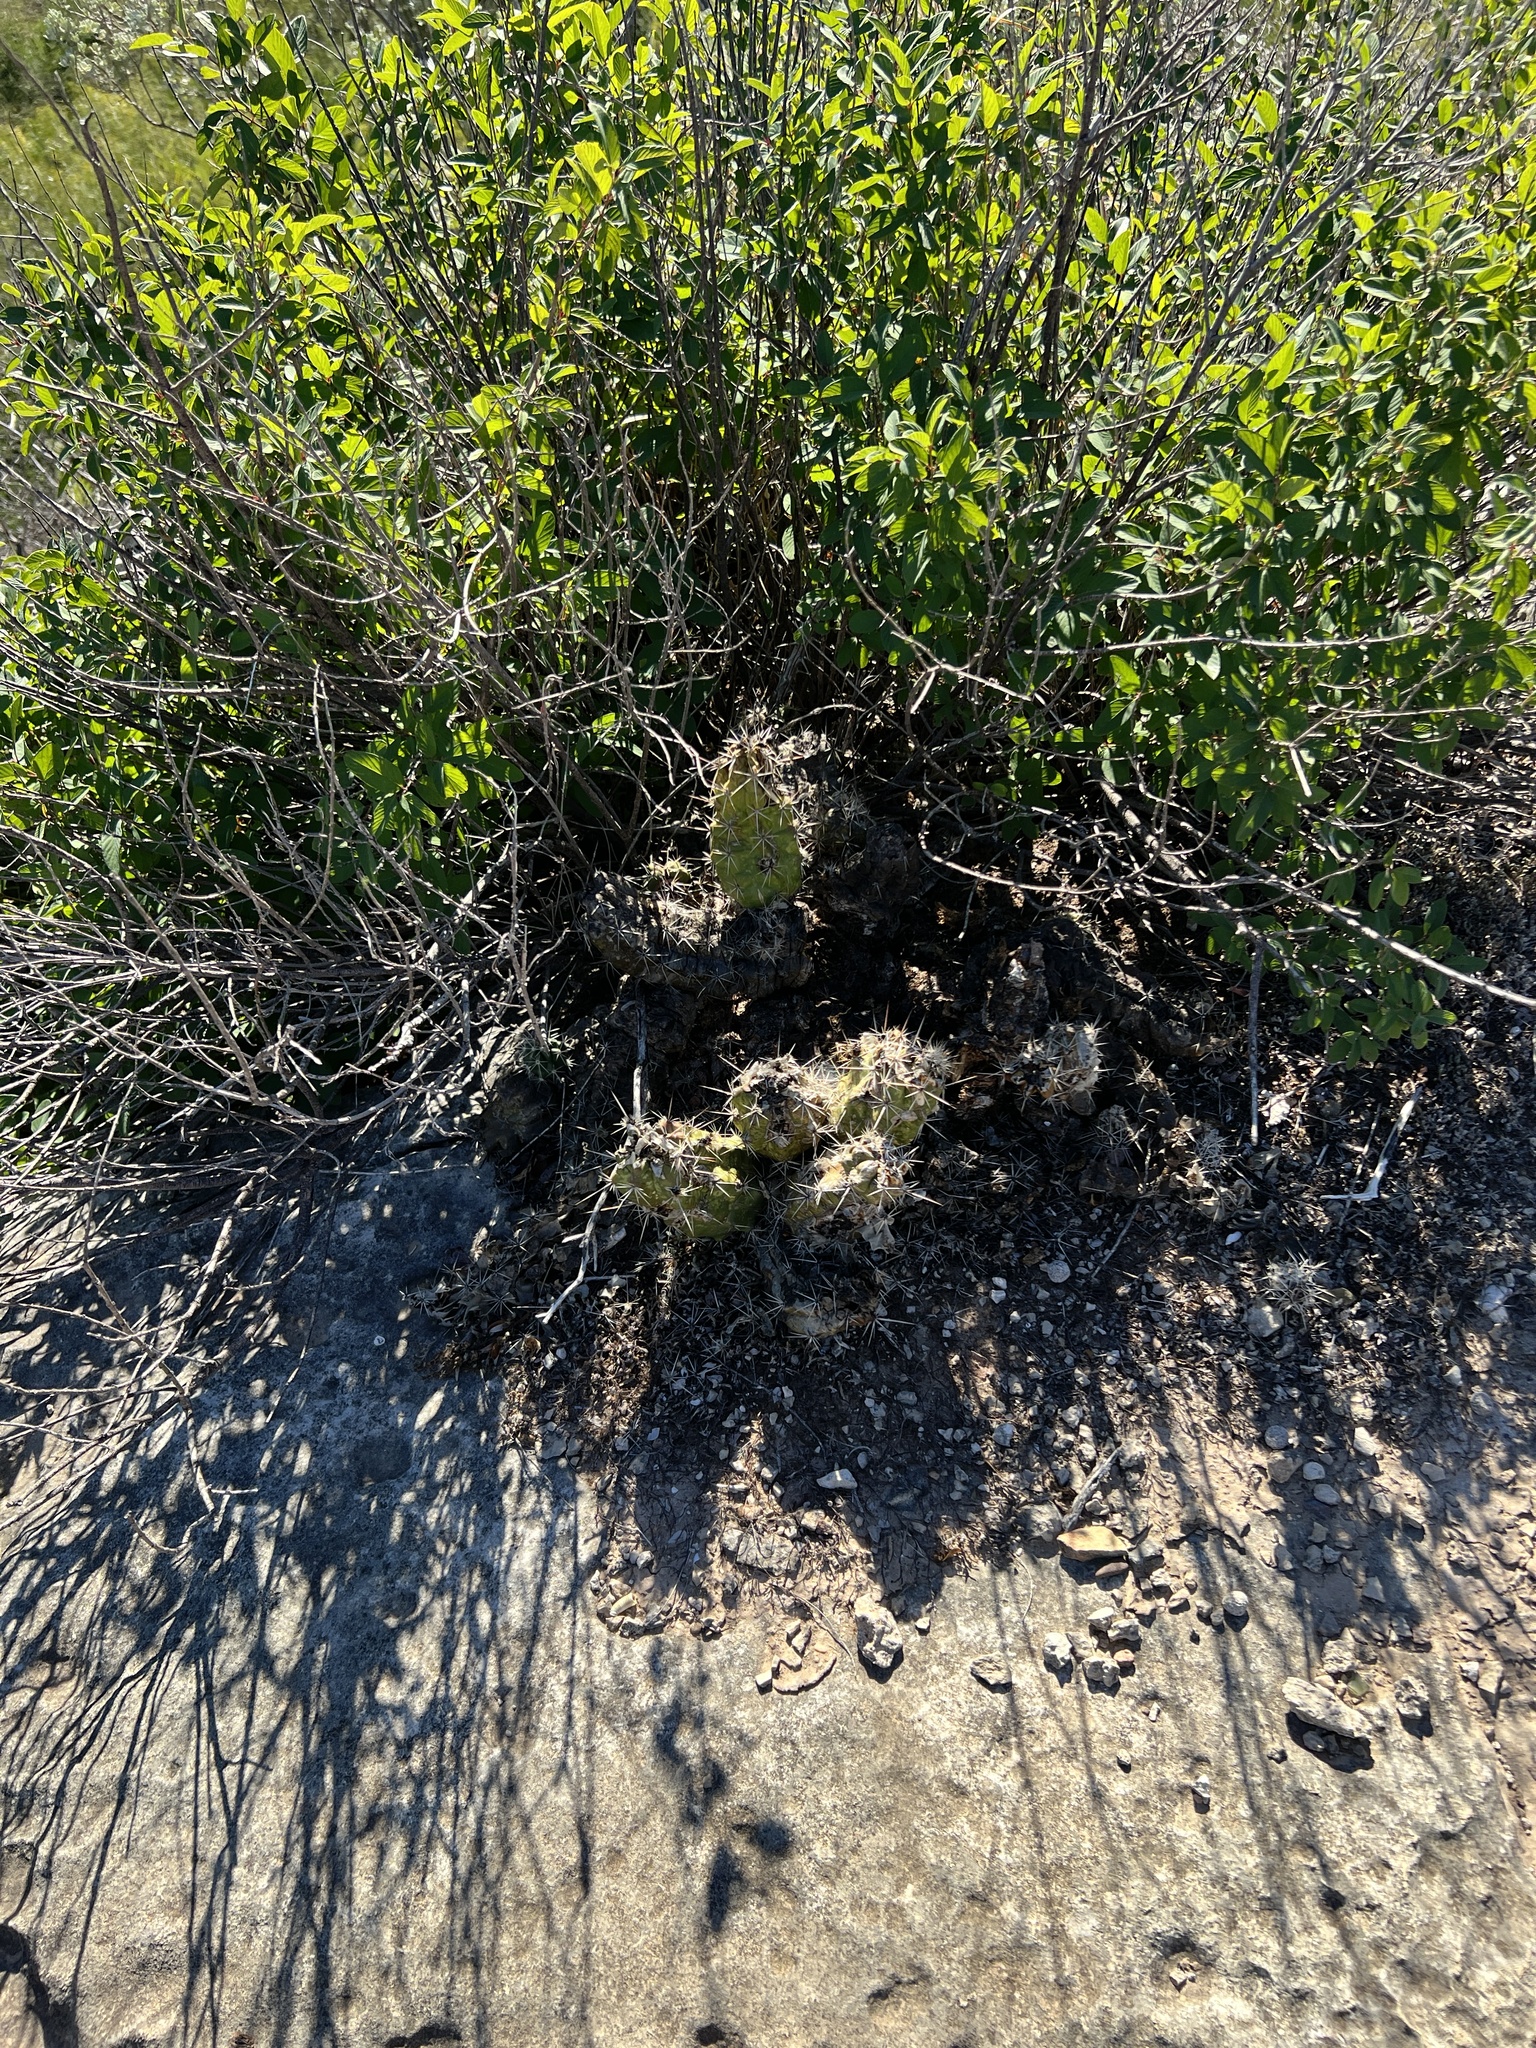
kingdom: Plantae
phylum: Tracheophyta
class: Magnoliopsida
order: Caryophyllales
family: Cactaceae
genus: Echinocereus
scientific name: Echinocereus enneacanthus
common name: Pitaya
